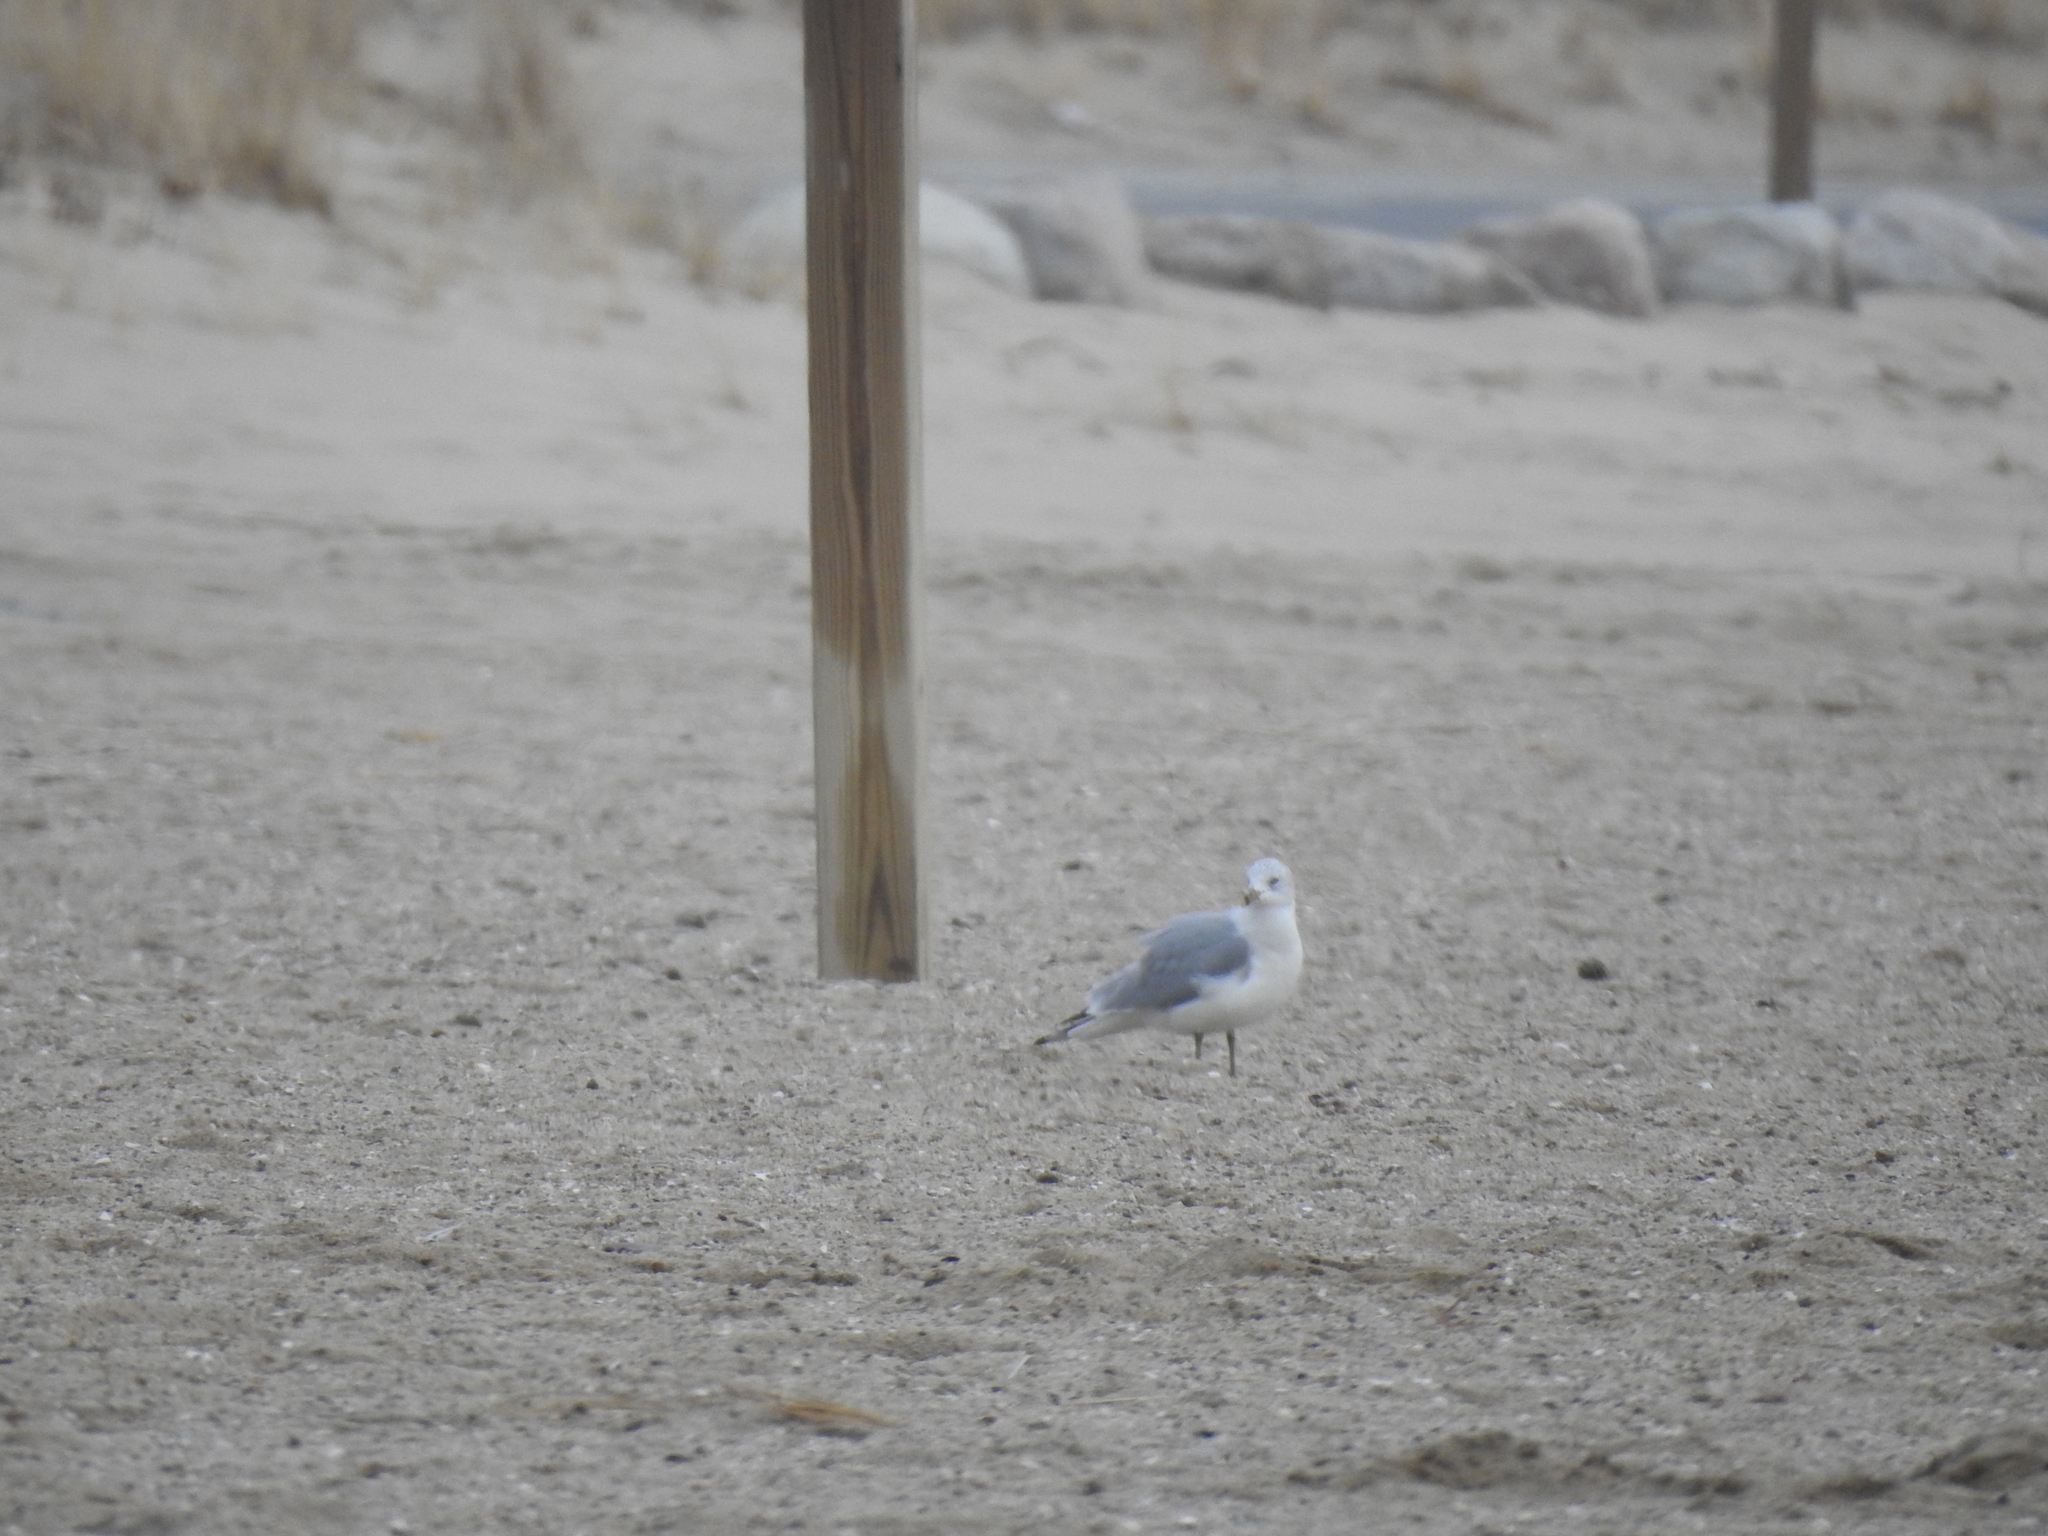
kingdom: Animalia
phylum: Chordata
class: Aves
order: Charadriiformes
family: Laridae
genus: Larus
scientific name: Larus delawarensis
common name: Ring-billed gull
